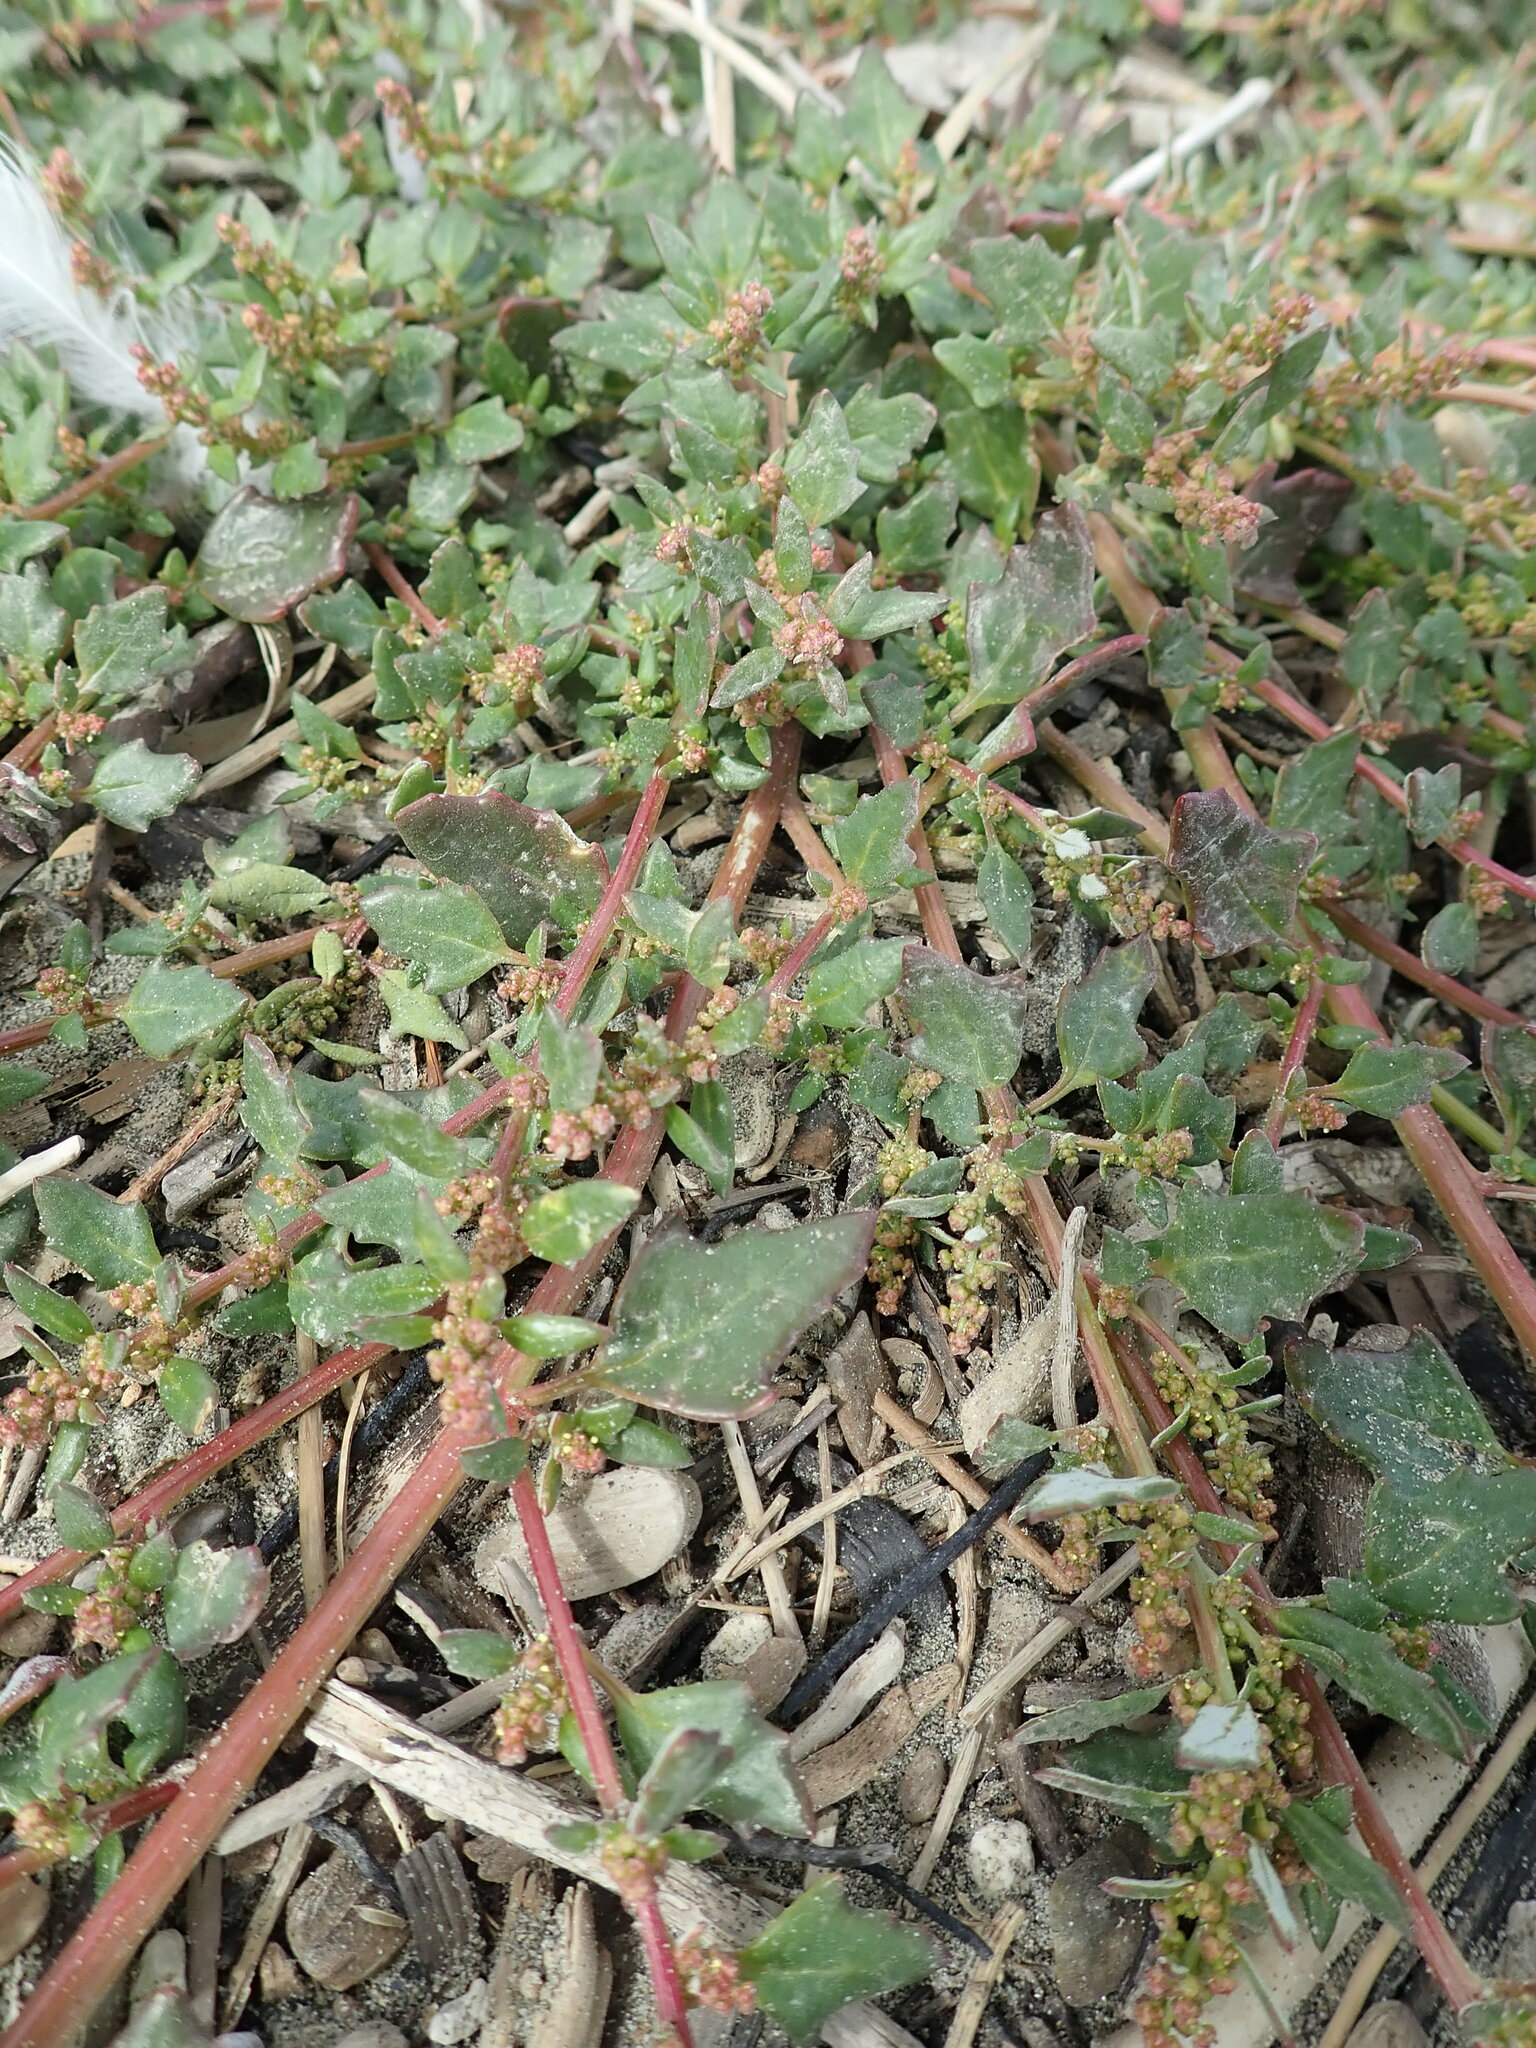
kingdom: Plantae
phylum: Tracheophyta
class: Magnoliopsida
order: Caryophyllales
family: Amaranthaceae
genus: Oxybasis
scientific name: Oxybasis ambigua
